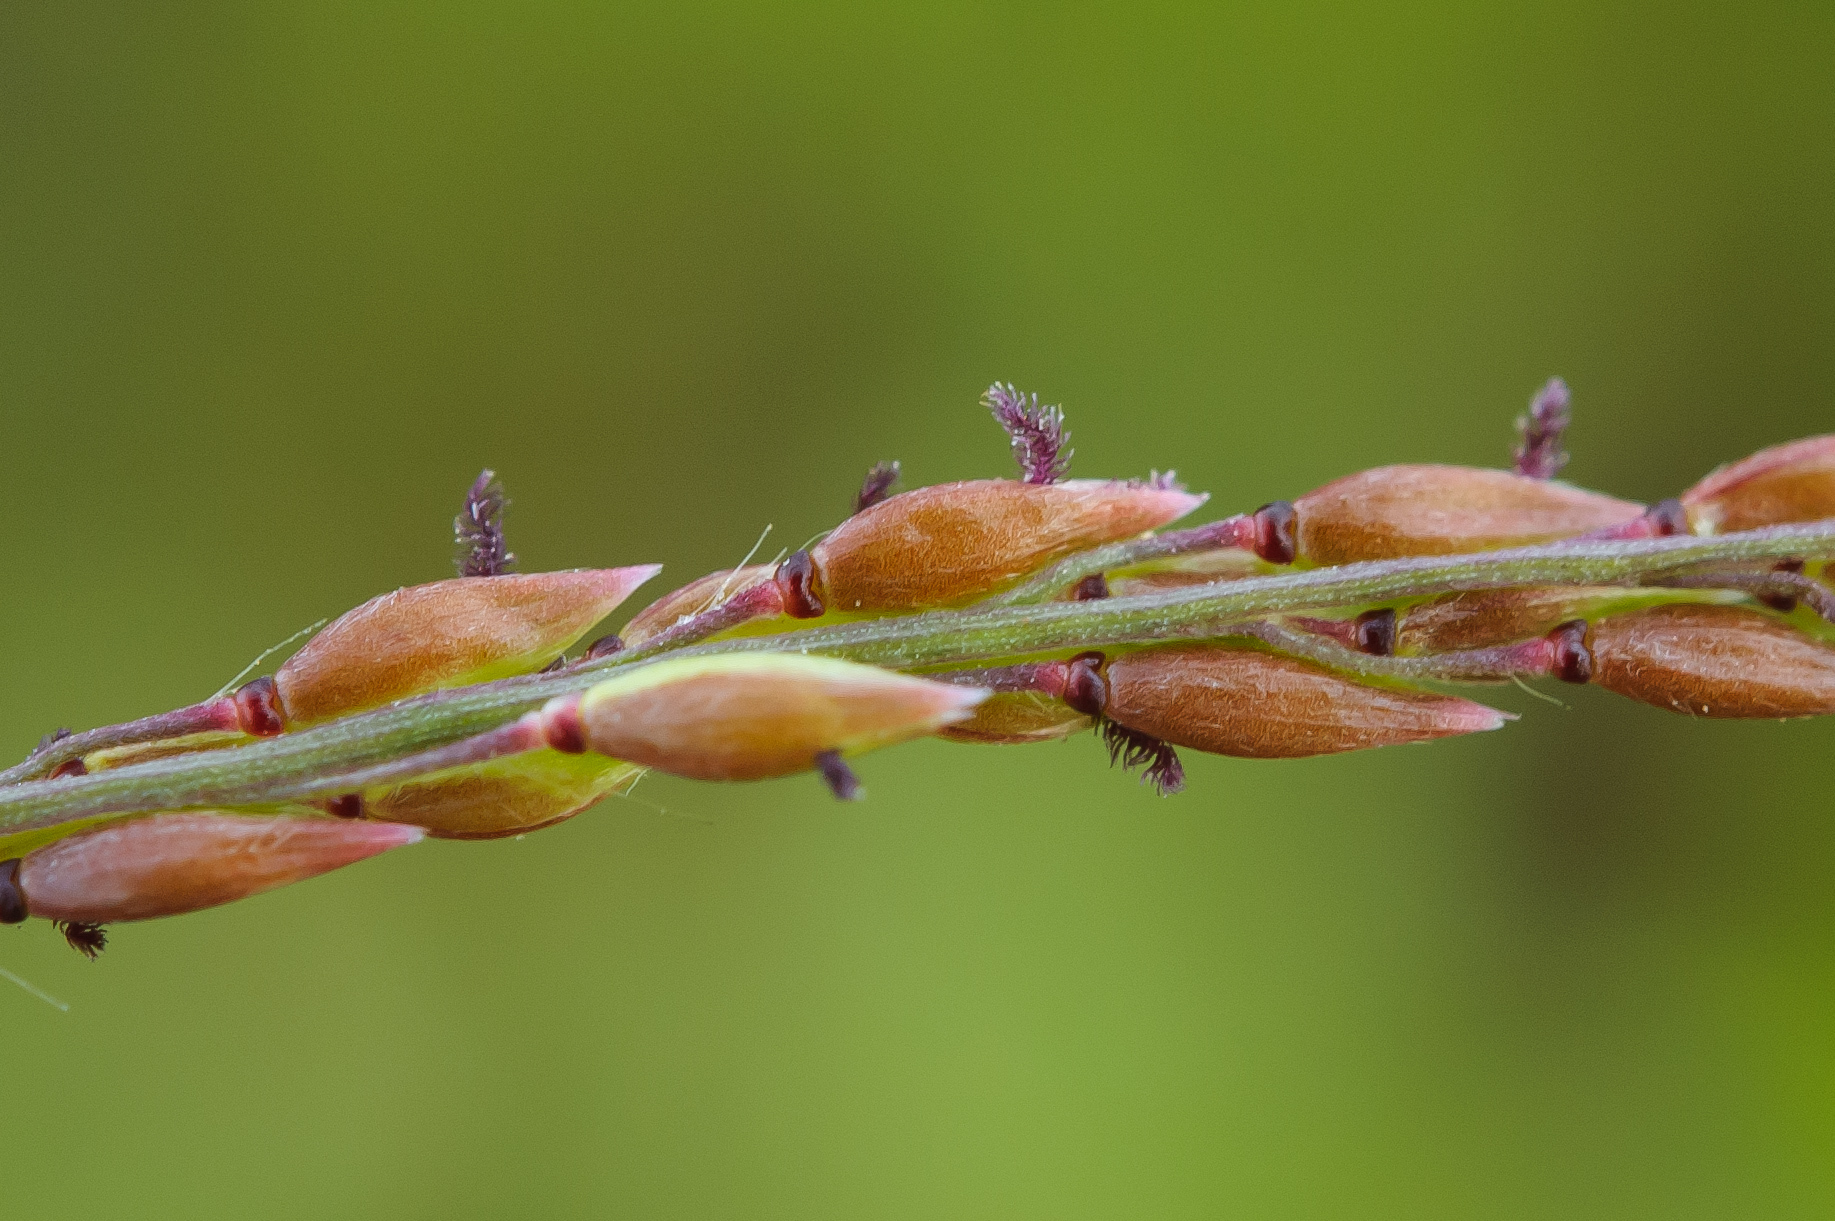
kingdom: Plantae
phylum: Tracheophyta
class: Liliopsida
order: Poales
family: Poaceae
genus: Eriochloa
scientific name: Eriochloa procera
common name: Spring grass
